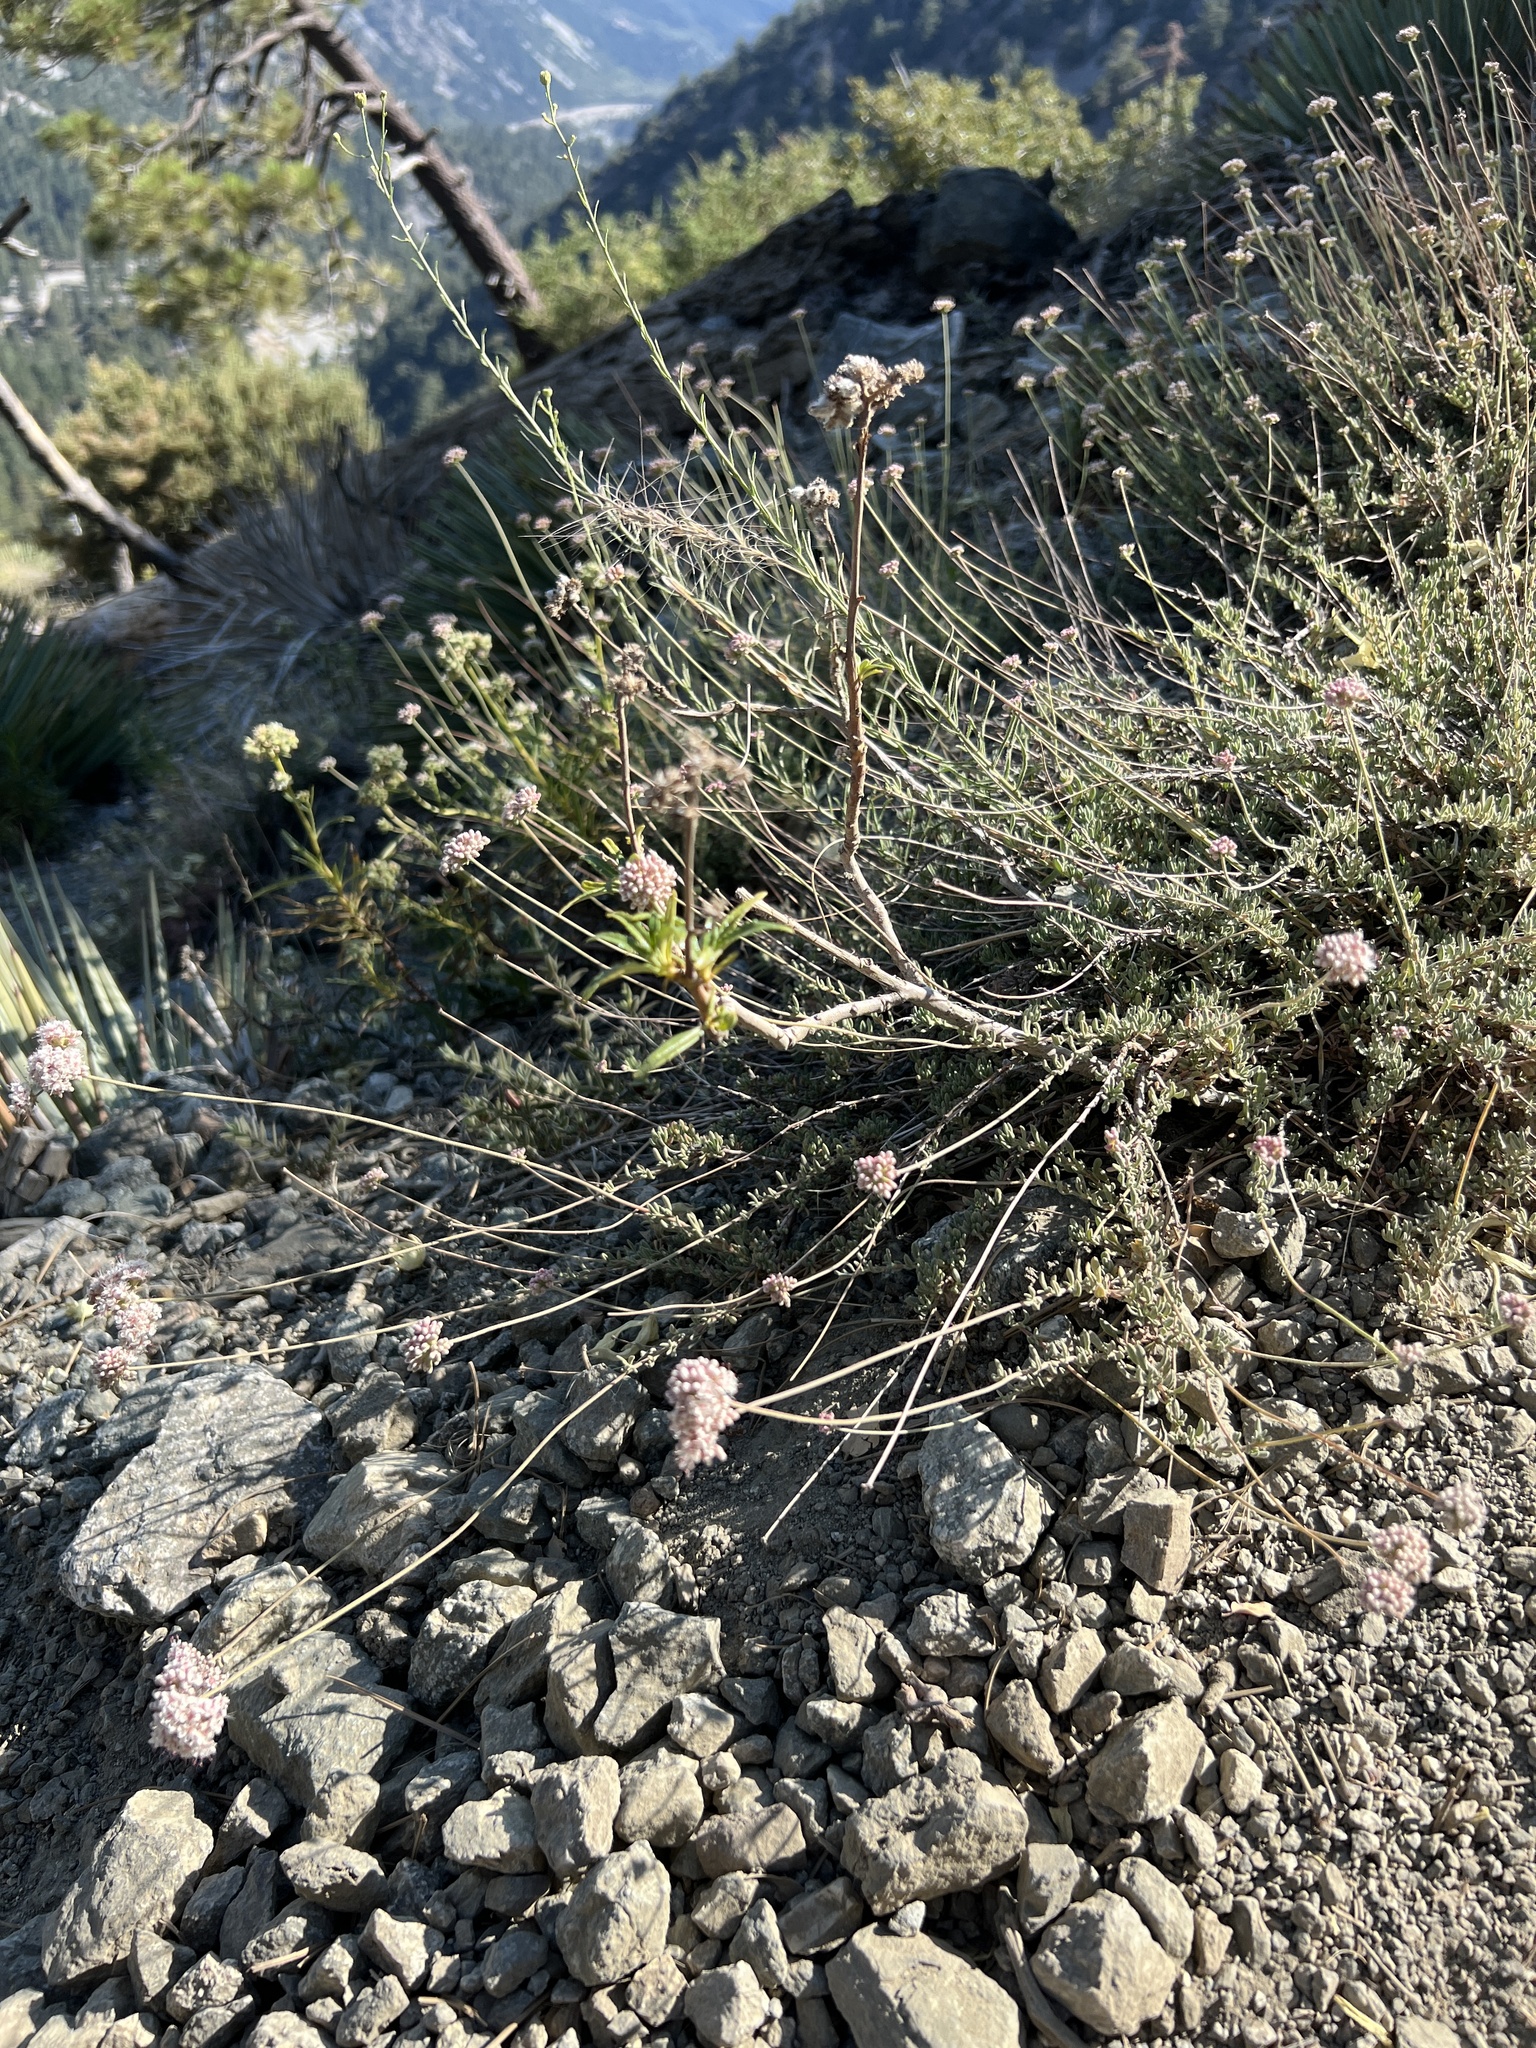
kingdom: Plantae
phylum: Tracheophyta
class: Magnoliopsida
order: Caryophyllales
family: Polygonaceae
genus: Eriogonum
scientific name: Eriogonum fasciculatum
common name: California wild buckwheat
